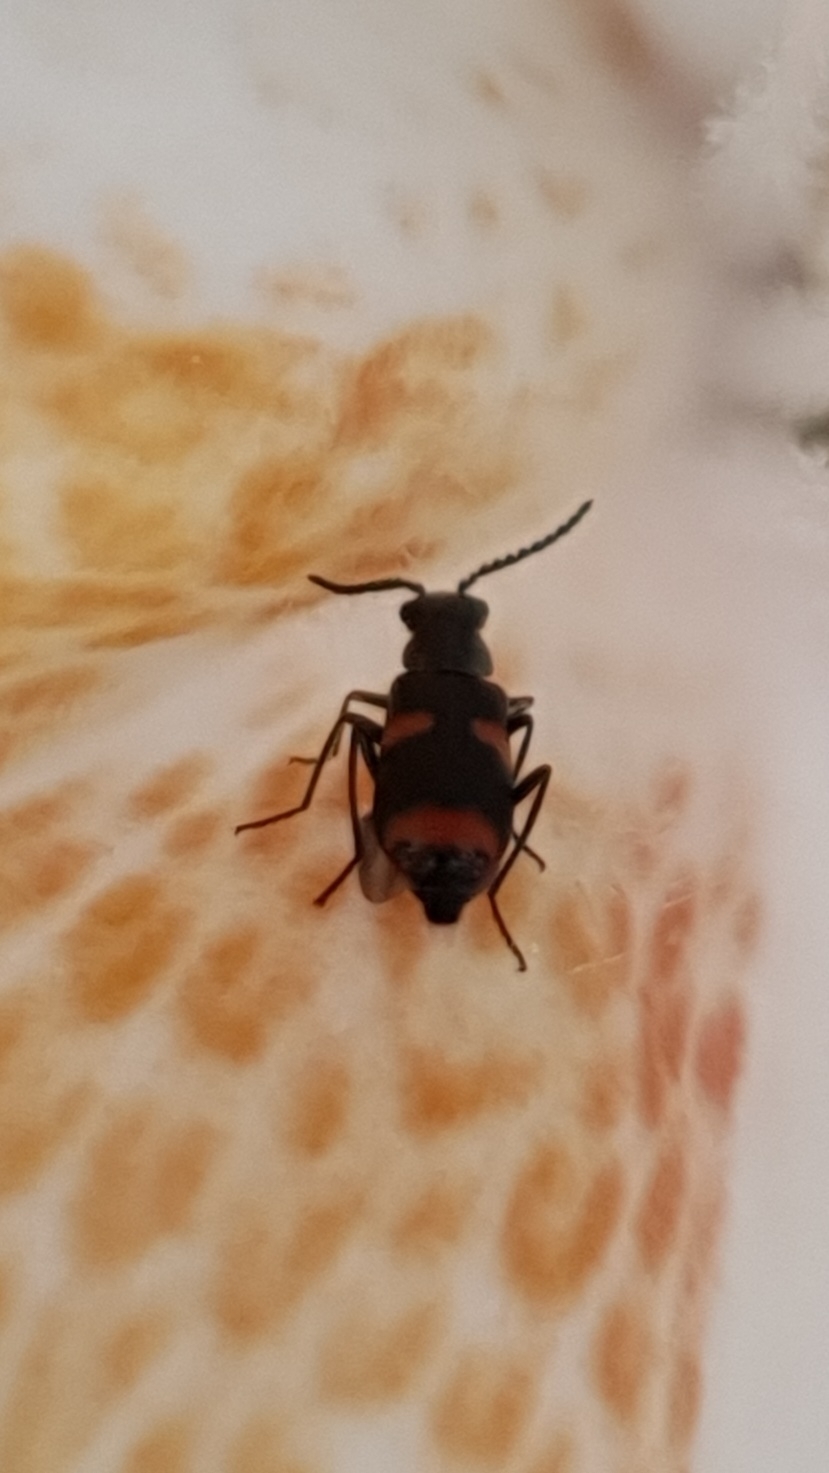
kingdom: Animalia
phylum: Arthropoda
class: Insecta
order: Coleoptera
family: Melyridae
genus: Anthocomus
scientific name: Anthocomus fasciatus
